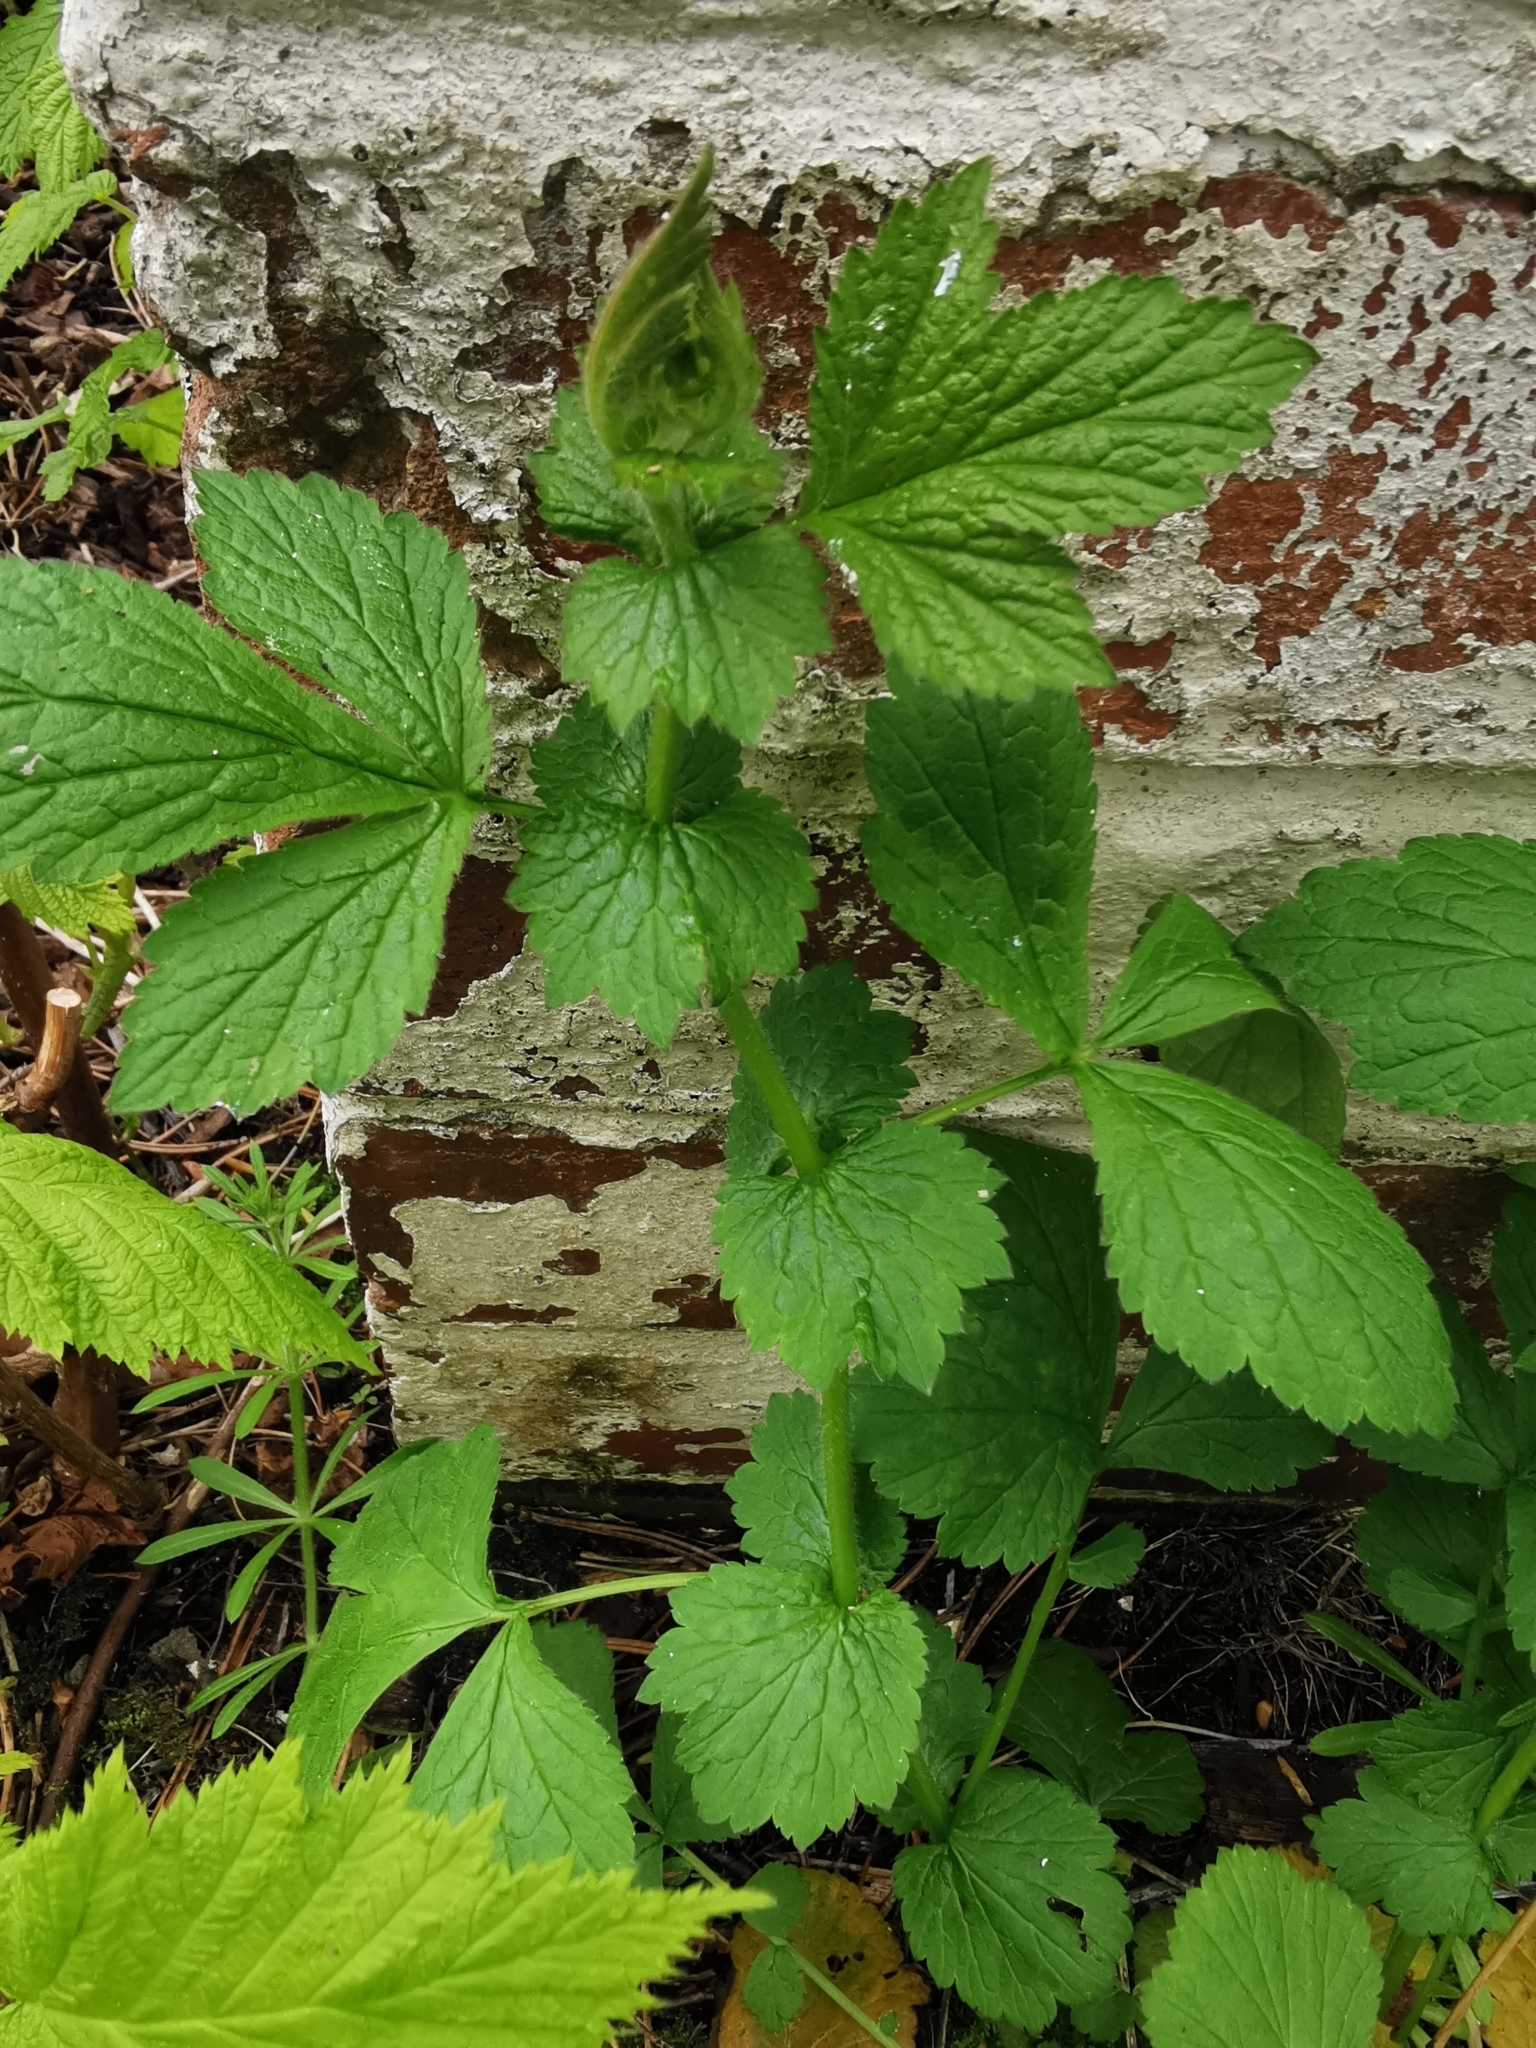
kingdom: Plantae
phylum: Tracheophyta
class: Magnoliopsida
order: Rosales
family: Rosaceae
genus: Geum
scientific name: Geum urbanum
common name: Wood avens
